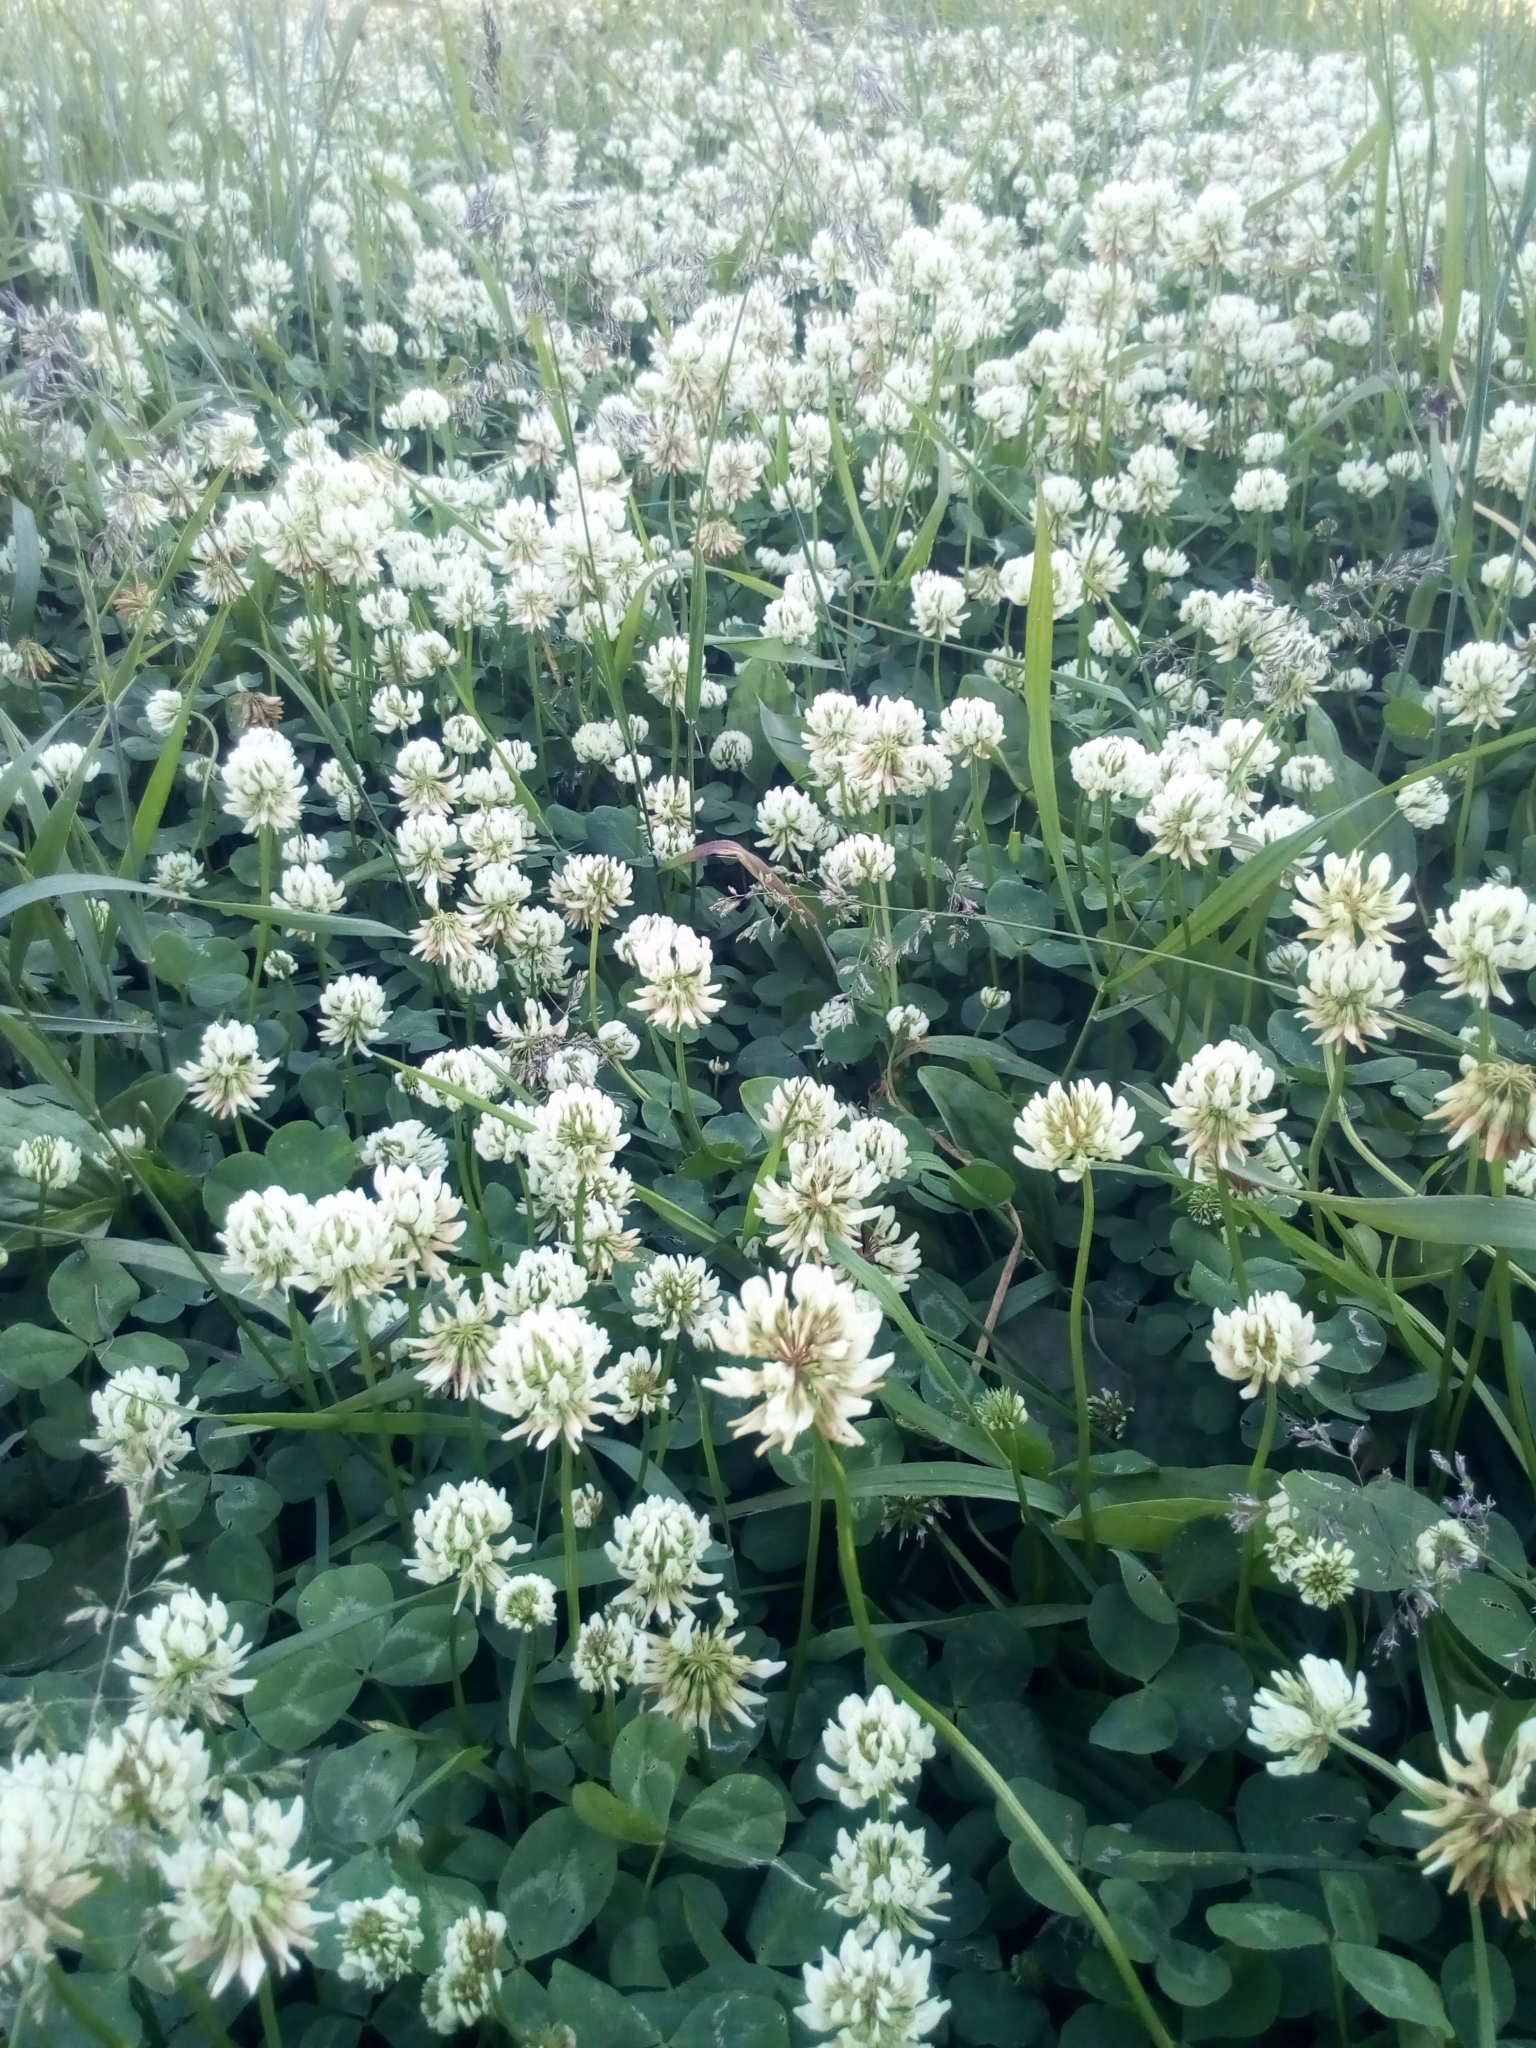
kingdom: Plantae
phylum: Tracheophyta
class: Magnoliopsida
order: Fabales
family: Fabaceae
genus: Trifolium
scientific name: Trifolium repens
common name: White clover
